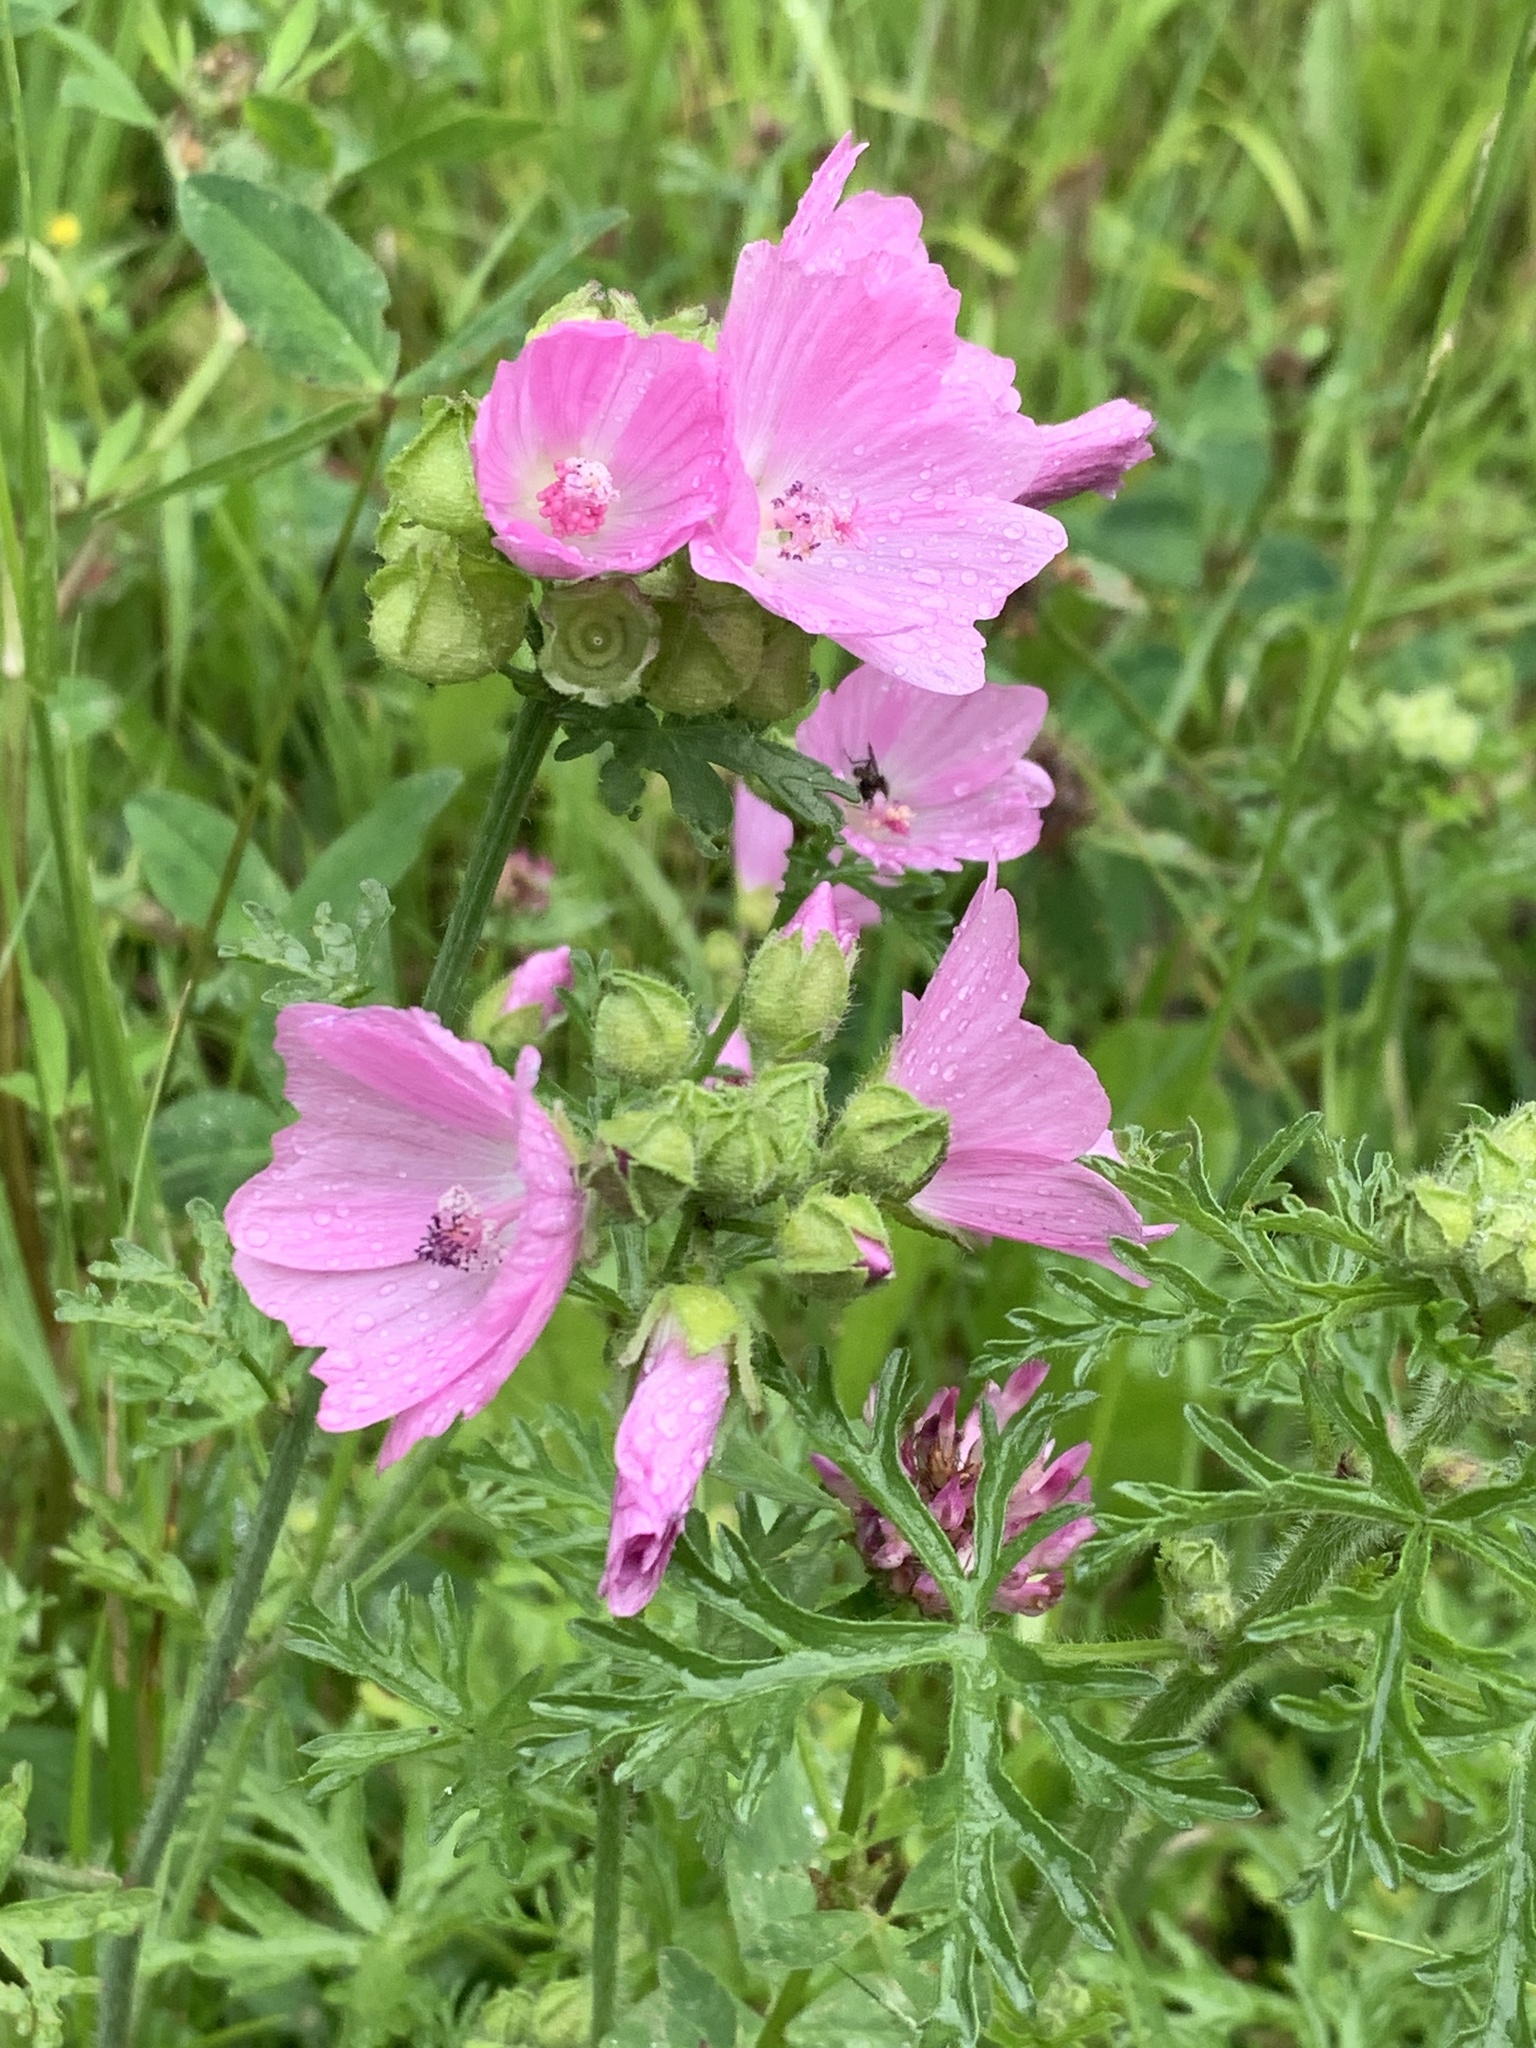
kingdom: Plantae
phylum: Tracheophyta
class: Magnoliopsida
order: Malvales
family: Malvaceae
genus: Malva
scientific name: Malva moschata
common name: Musk mallow
